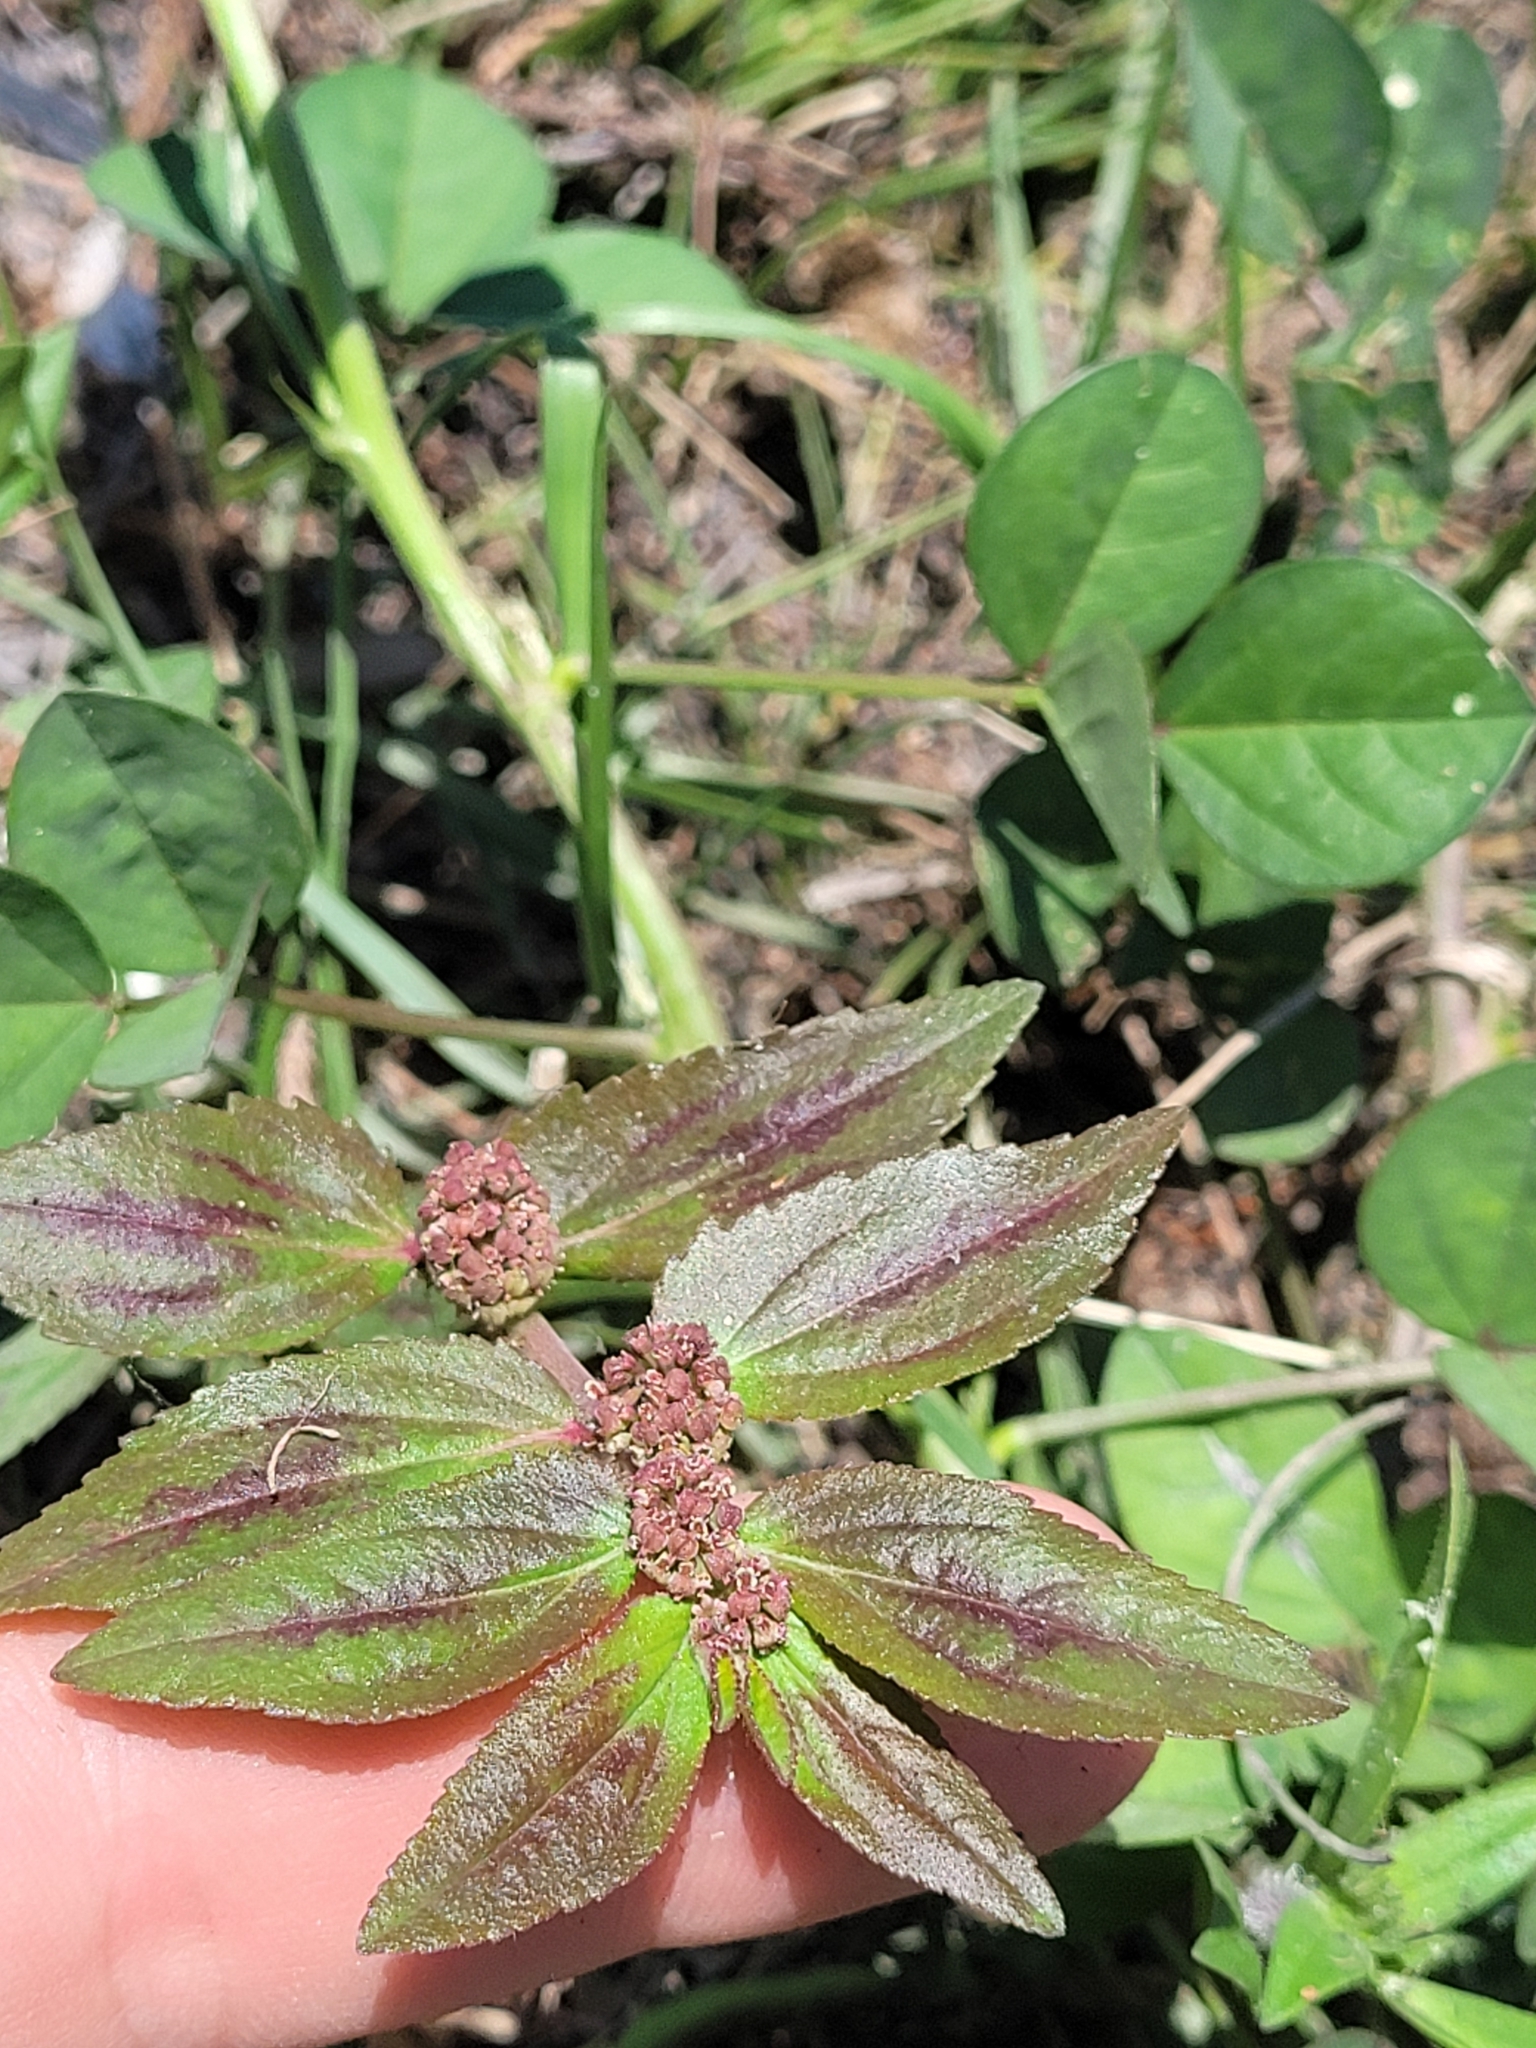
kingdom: Plantae
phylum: Tracheophyta
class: Magnoliopsida
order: Malpighiales
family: Euphorbiaceae
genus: Euphorbia
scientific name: Euphorbia hirta
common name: Pillpod sandmat
